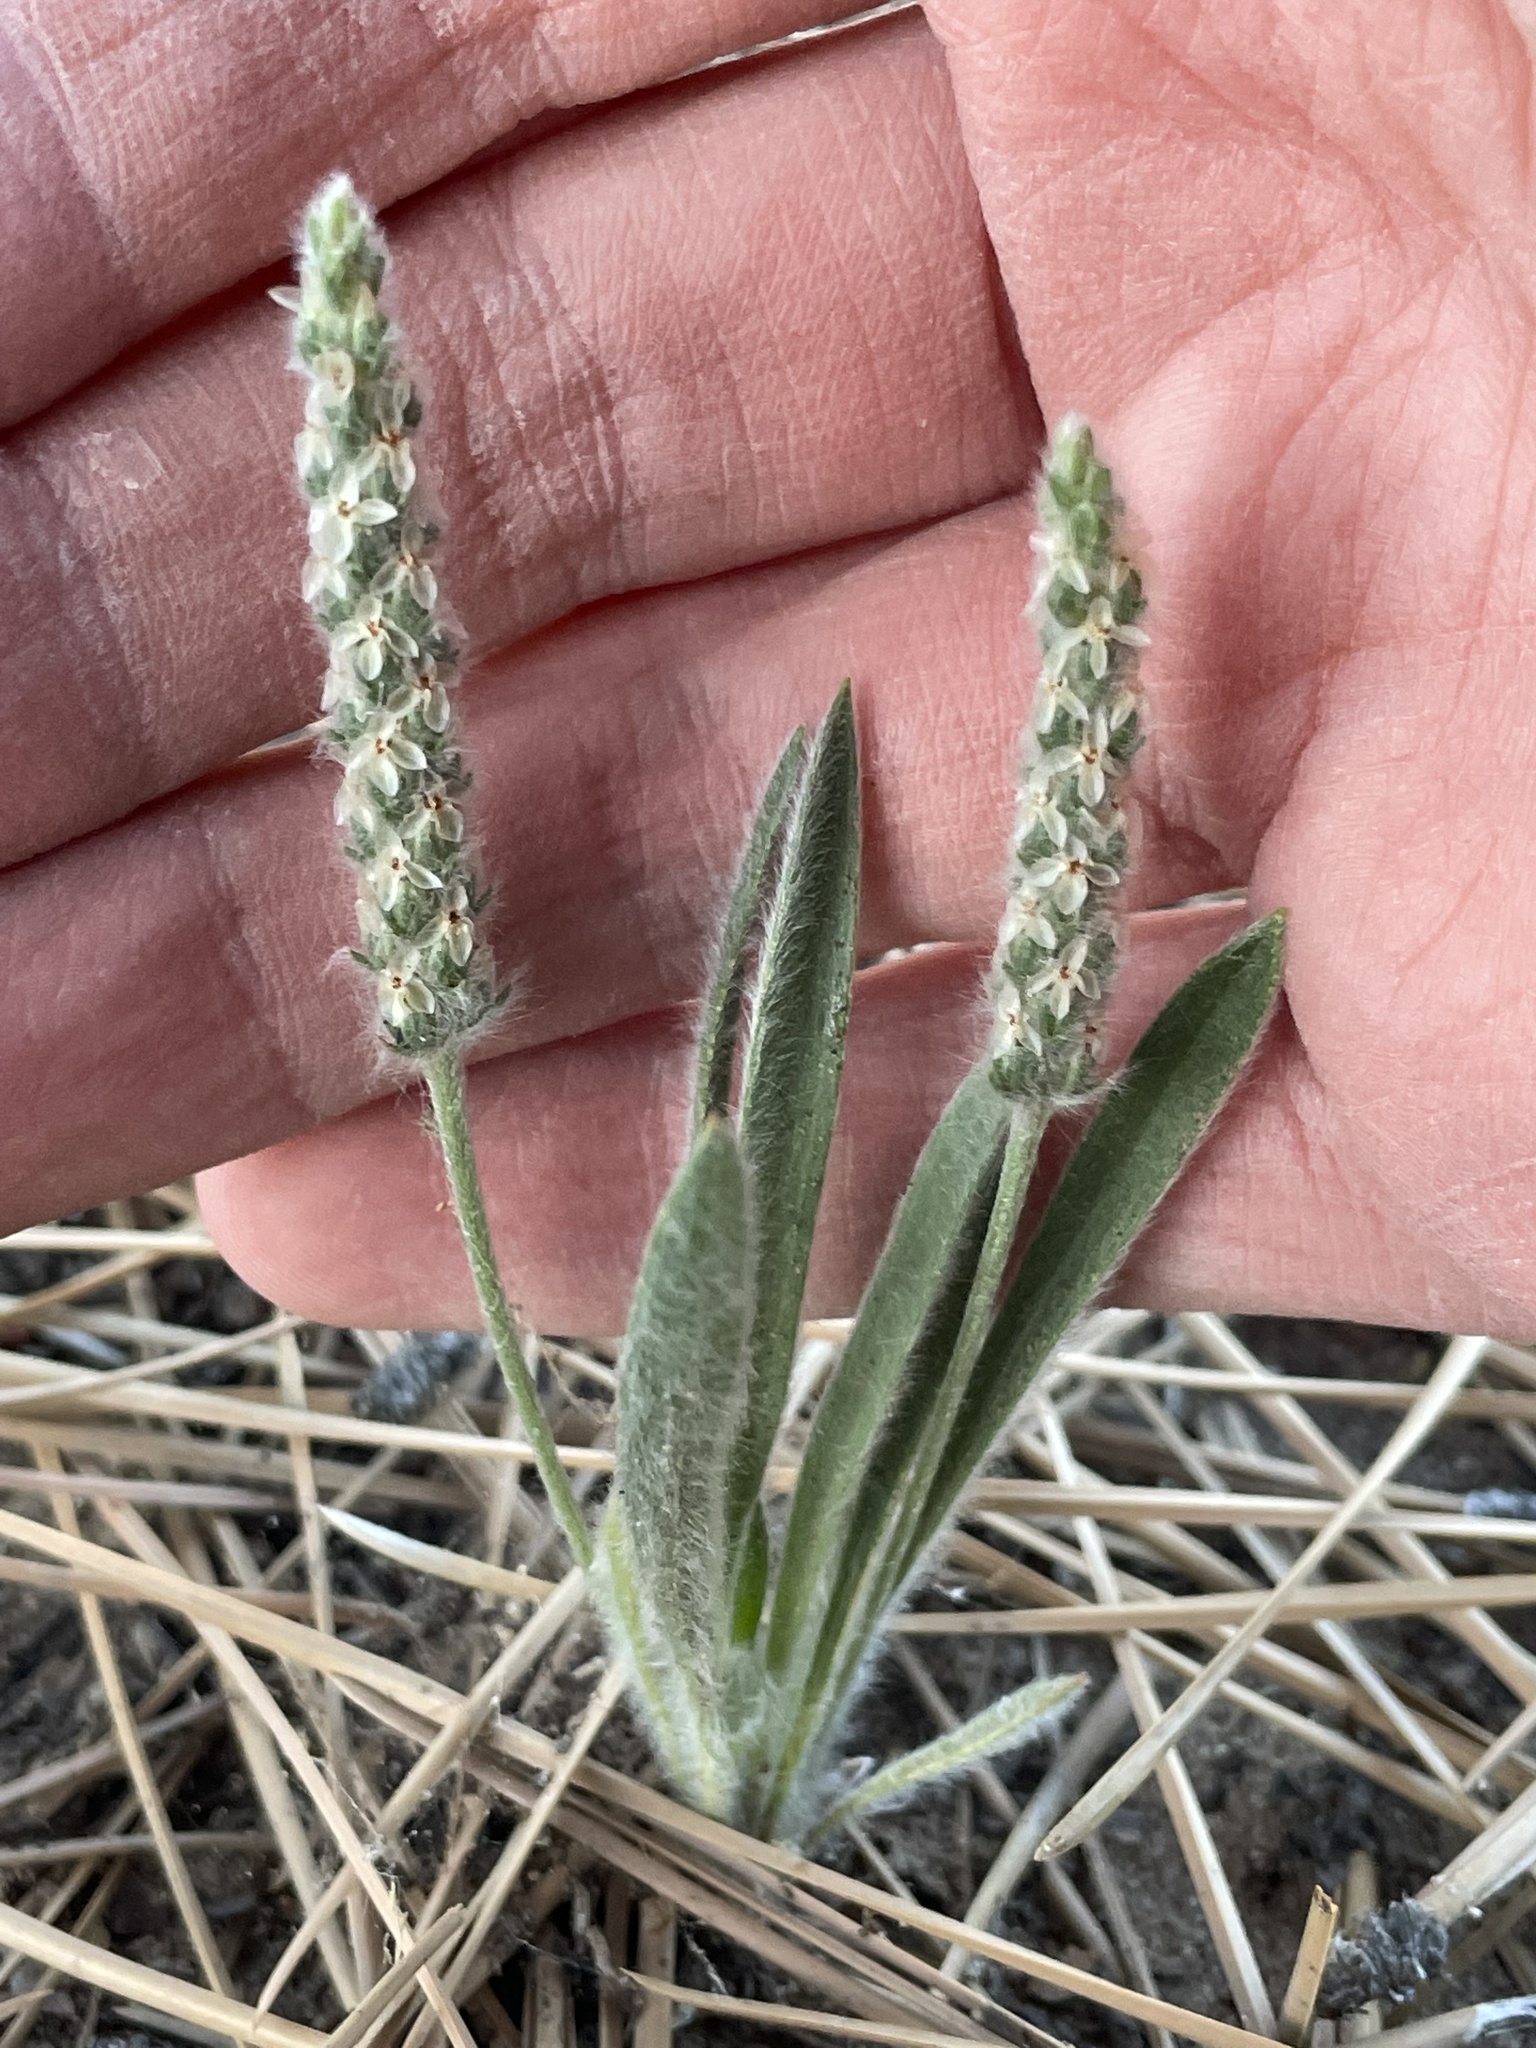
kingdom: Plantae
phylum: Tracheophyta
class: Magnoliopsida
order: Lamiales
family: Plantaginaceae
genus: Plantago
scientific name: Plantago patagonica
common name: Patagonia indian-wheat
